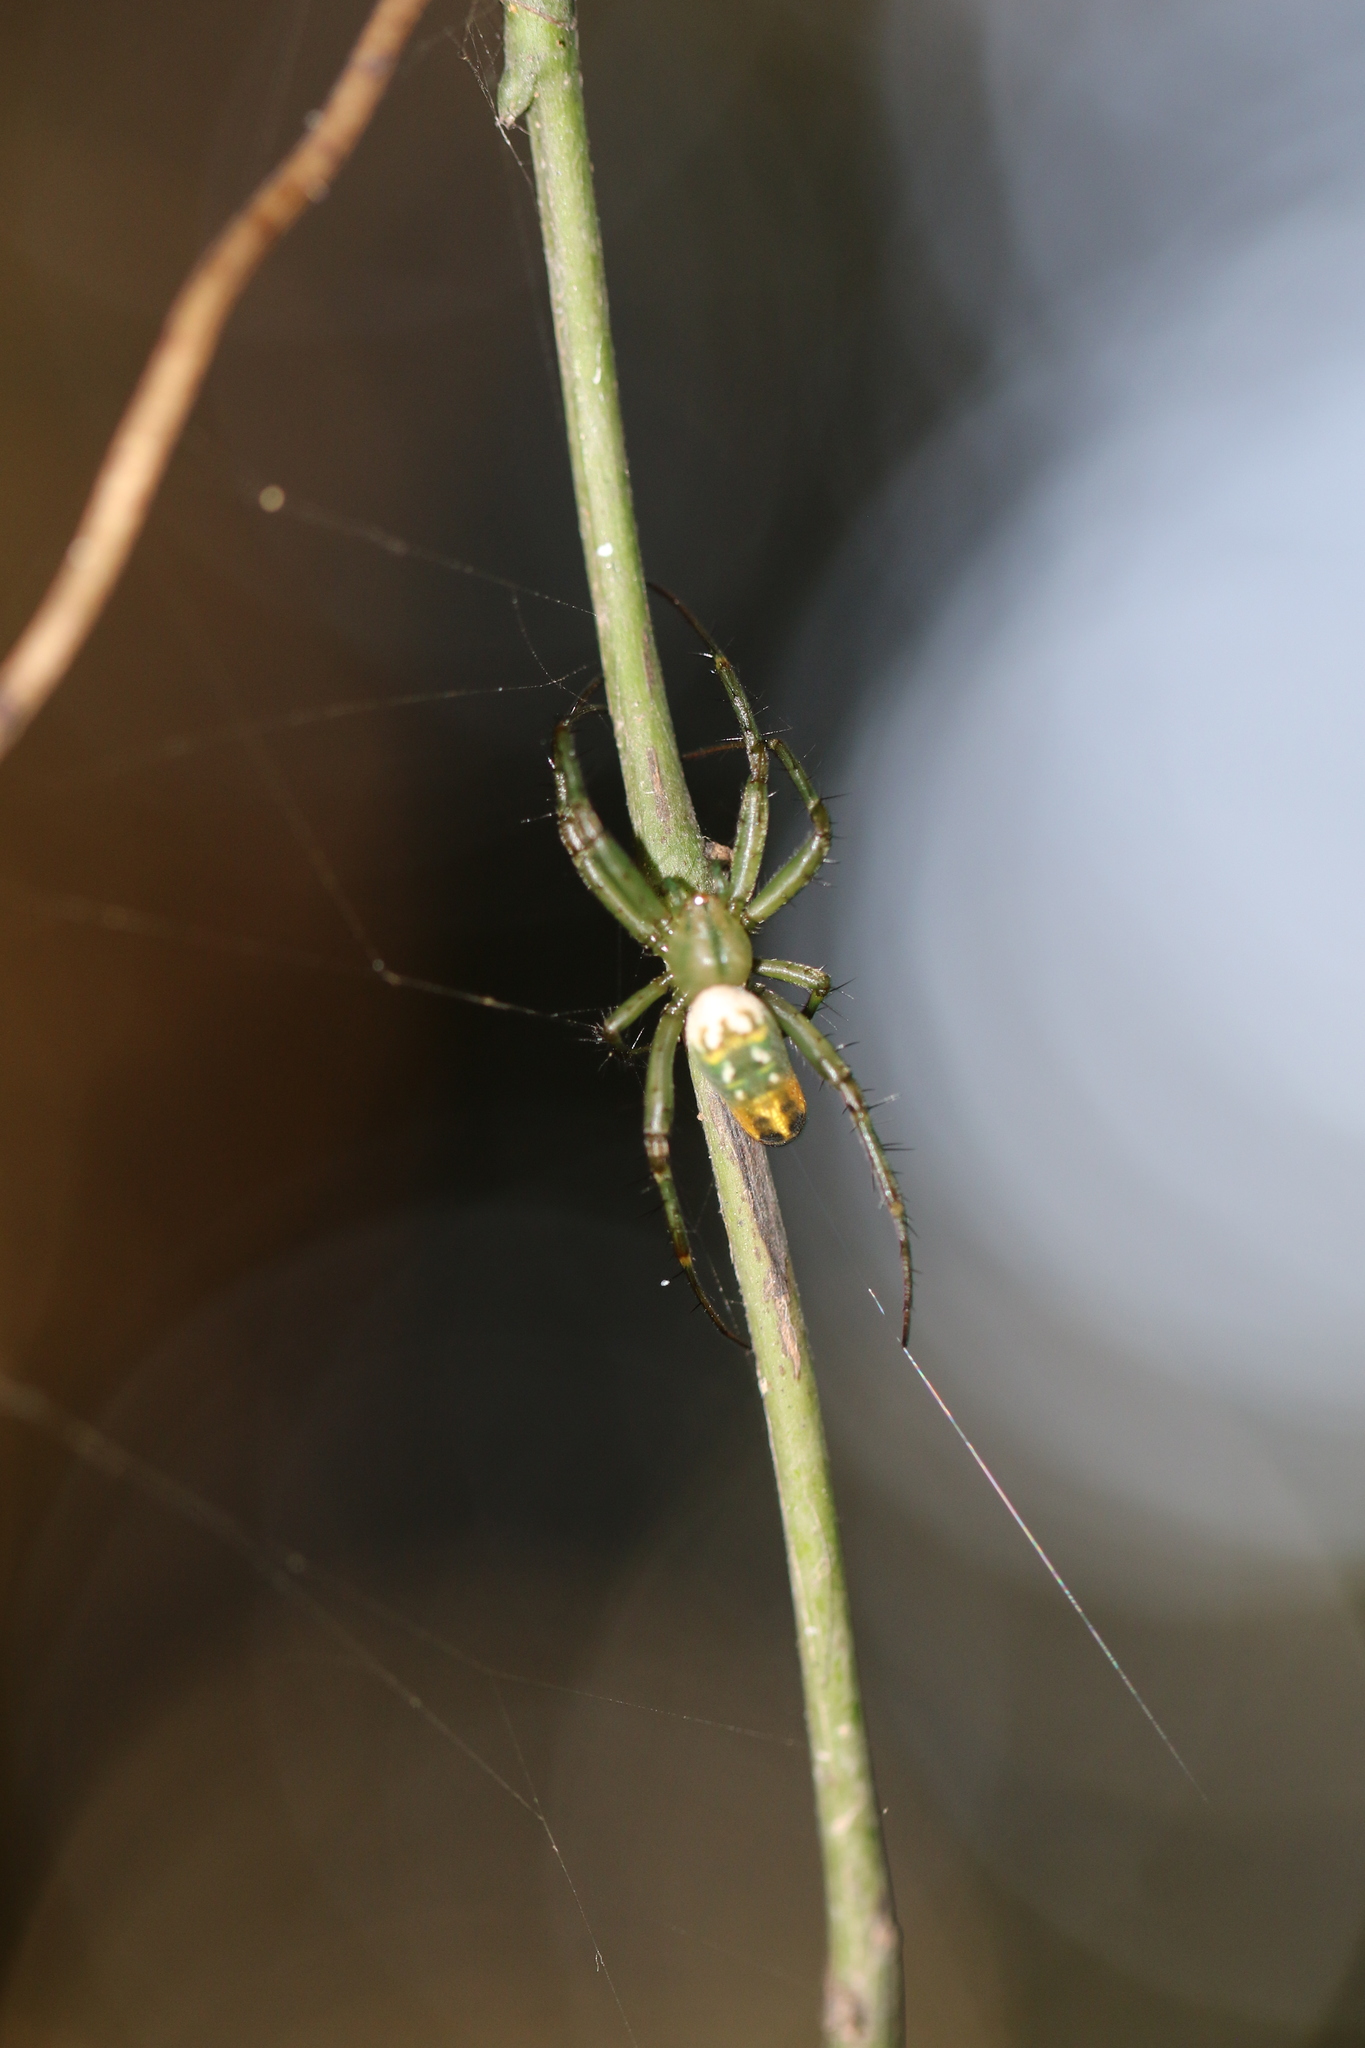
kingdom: Animalia
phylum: Arthropoda
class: Arachnida
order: Araneae
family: Araneidae
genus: Mangora
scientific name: Mangora strenua
